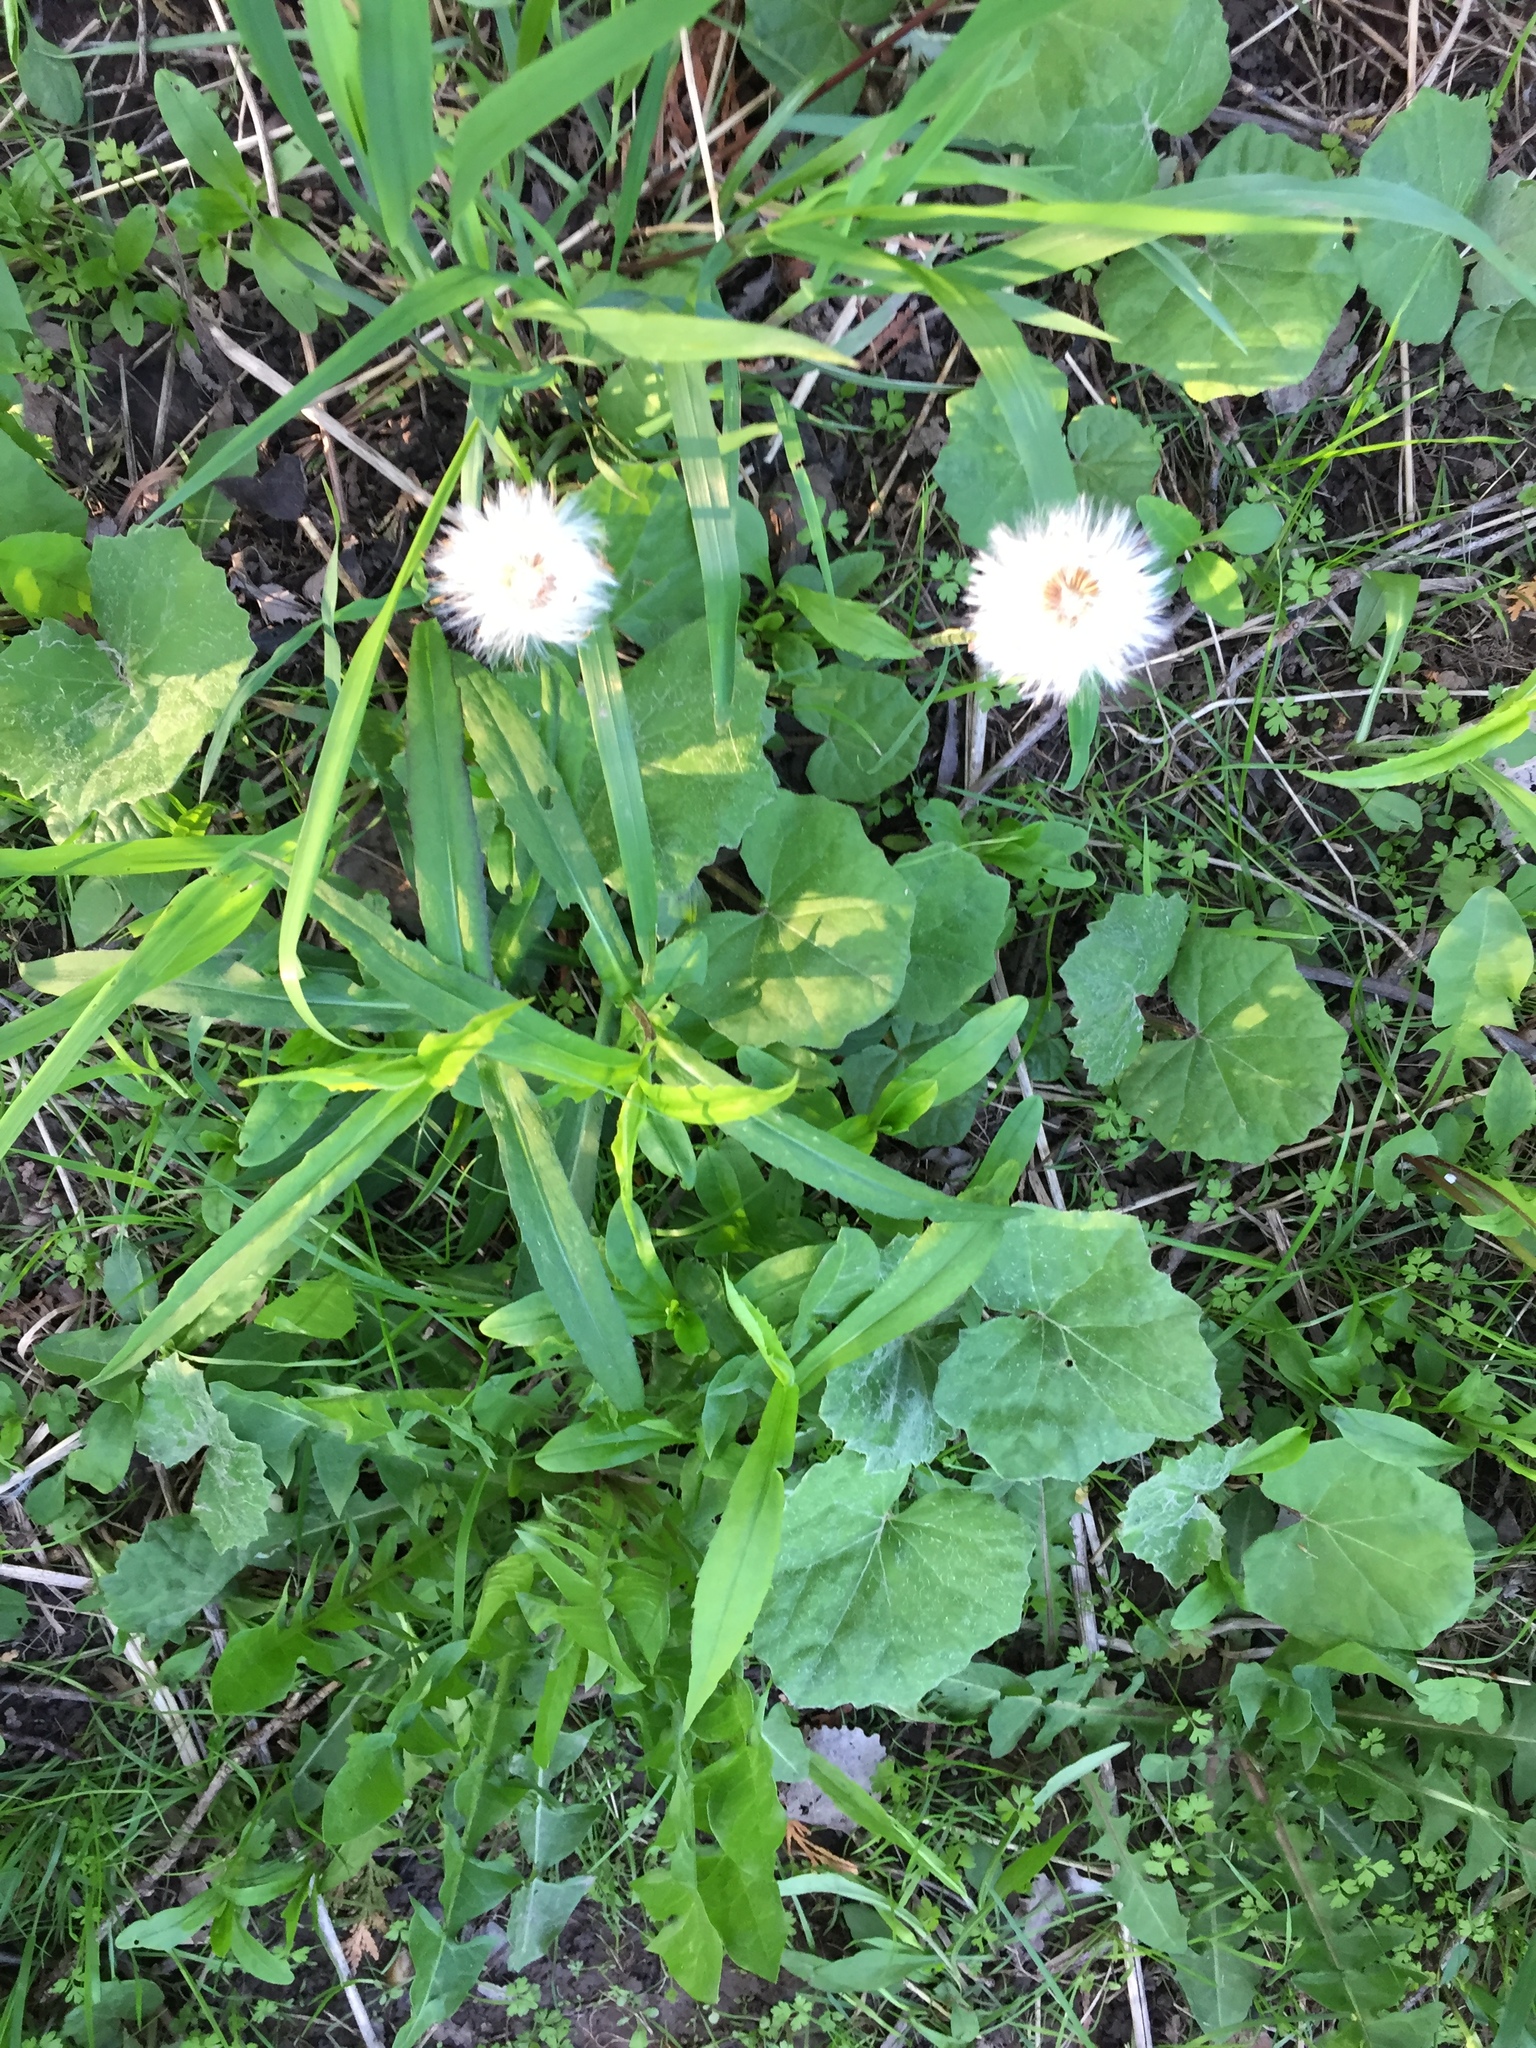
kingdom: Plantae
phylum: Tracheophyta
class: Magnoliopsida
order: Asterales
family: Asteraceae
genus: Tussilago
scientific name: Tussilago farfara
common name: Coltsfoot
